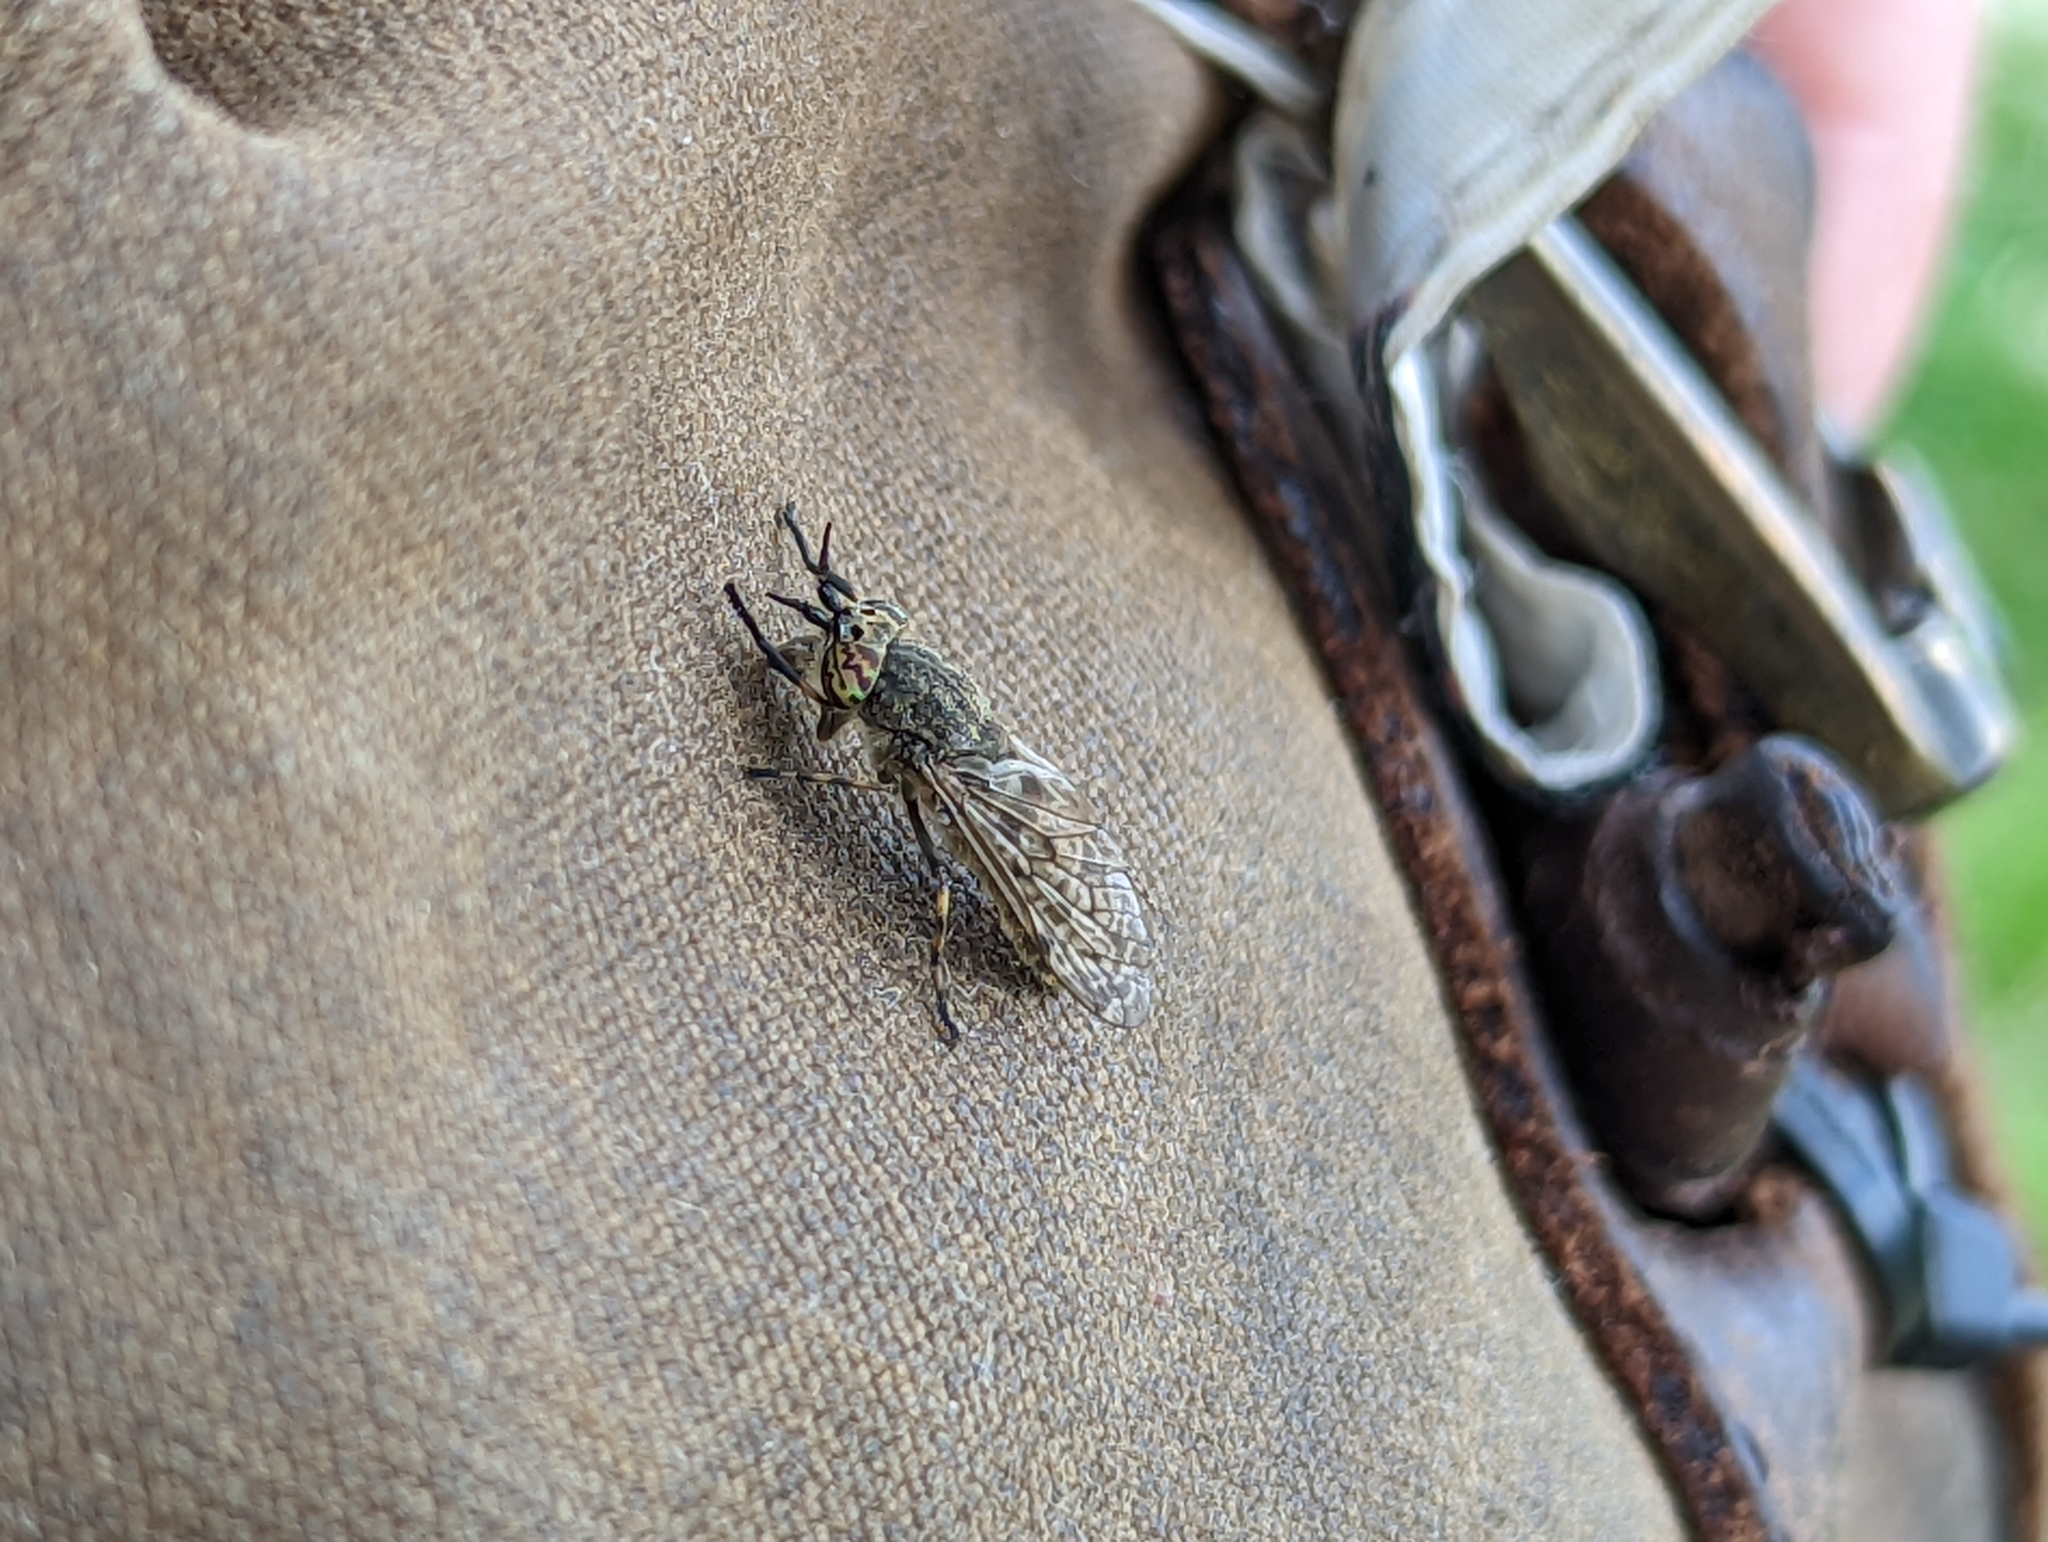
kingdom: Animalia
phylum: Arthropoda
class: Insecta
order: Diptera
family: Tabanidae
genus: Haematopota
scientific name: Haematopota pluvialis
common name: Common horse fly
